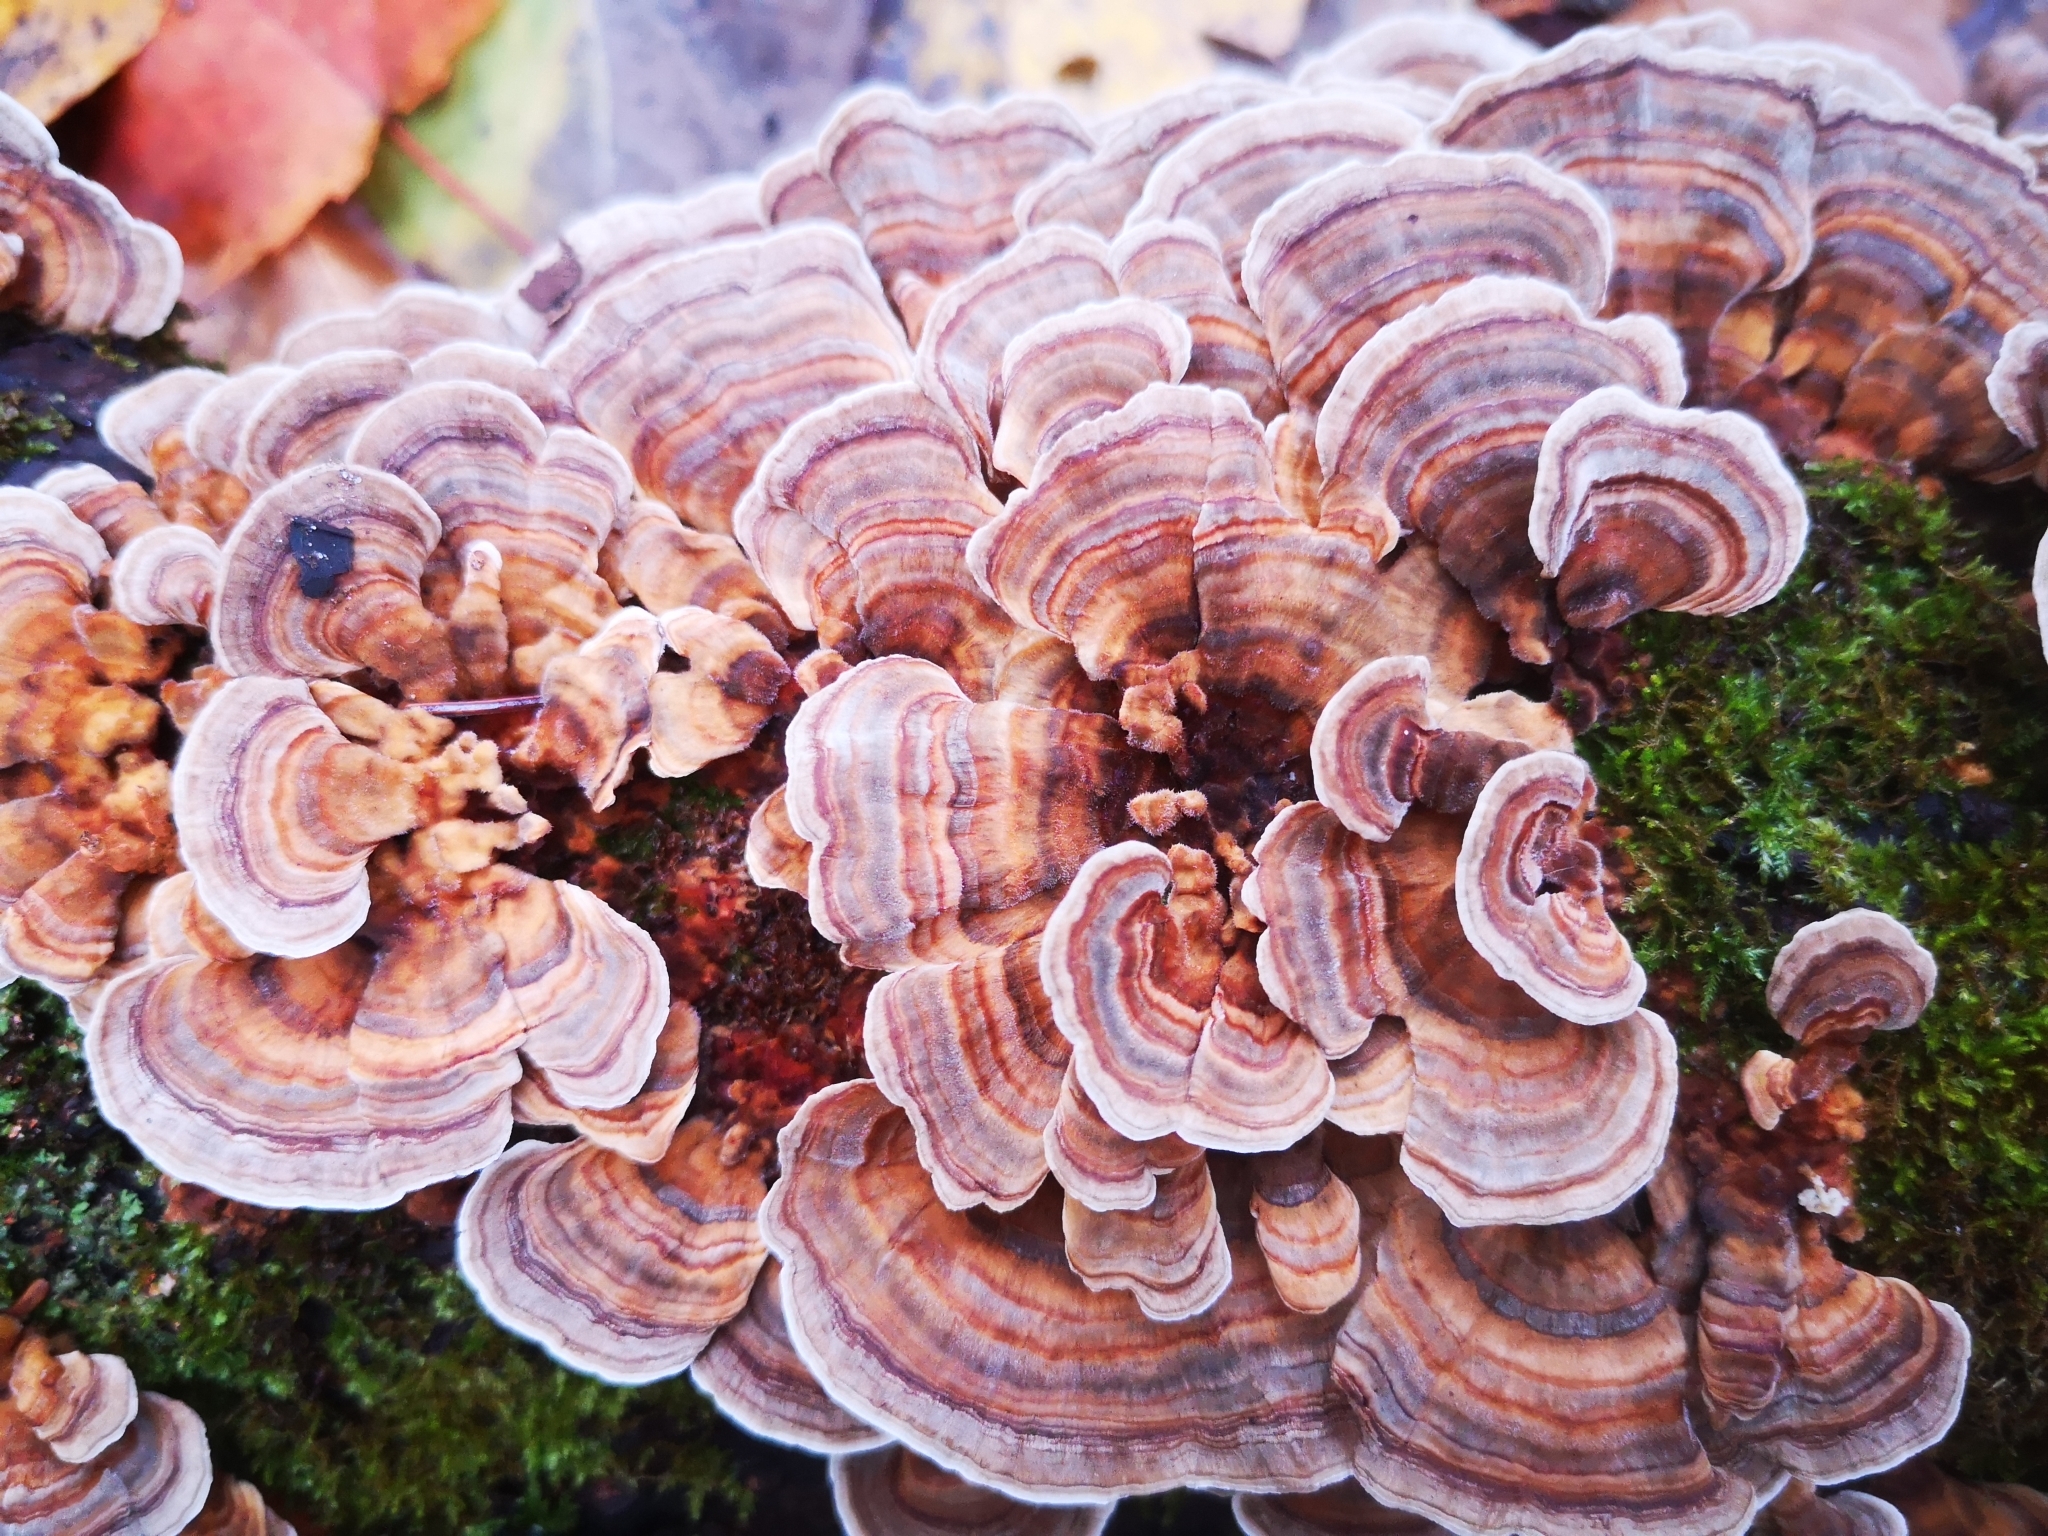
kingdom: Fungi
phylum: Basidiomycota
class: Agaricomycetes
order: Polyporales
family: Polyporaceae
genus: Trametes
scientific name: Trametes ochracea
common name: Ochre bracket
